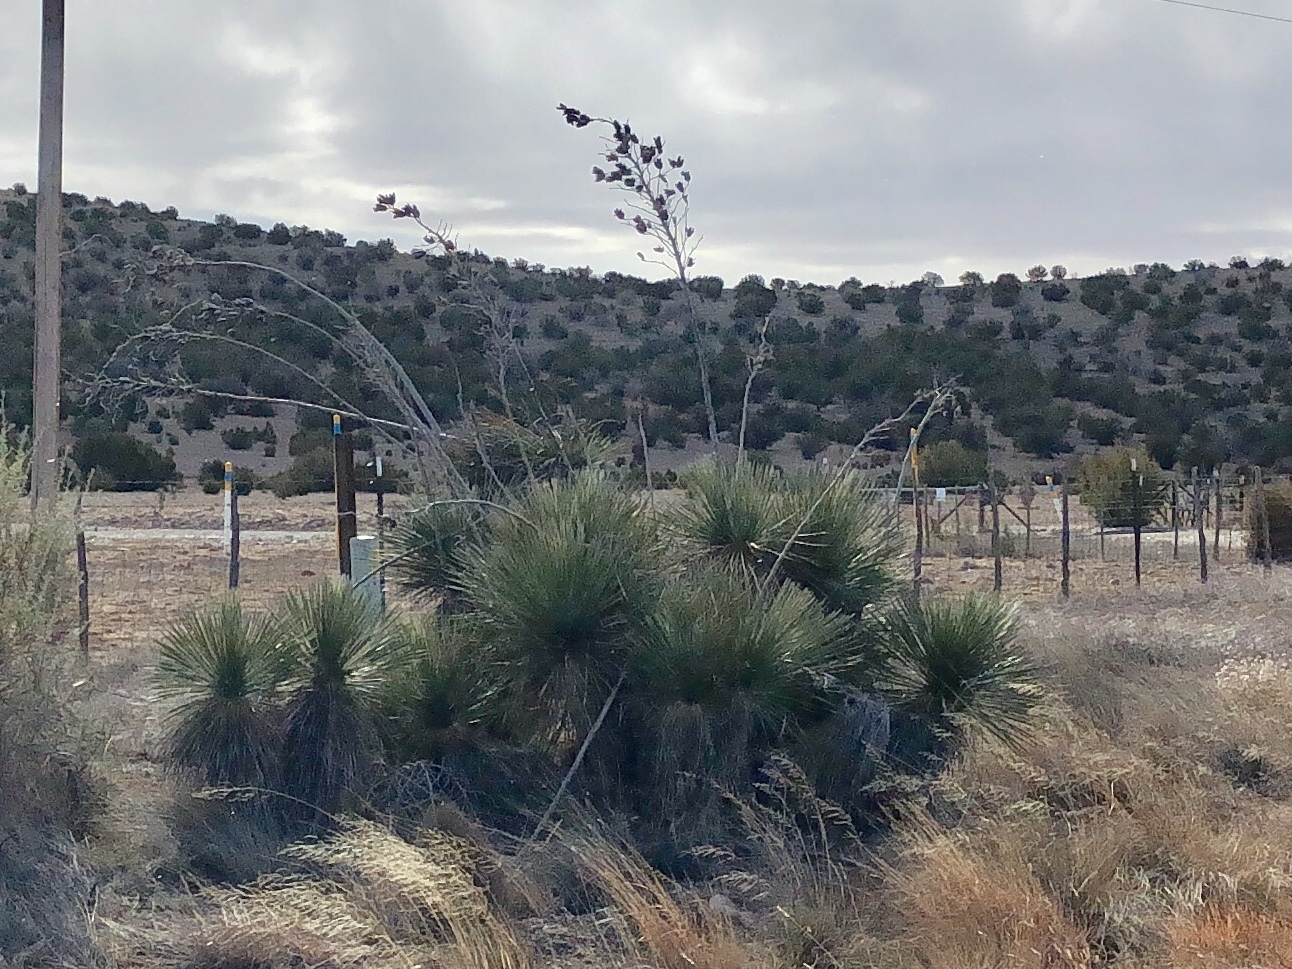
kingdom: Plantae
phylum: Tracheophyta
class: Liliopsida
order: Asparagales
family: Asparagaceae
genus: Yucca
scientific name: Yucca elata
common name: Palmella
